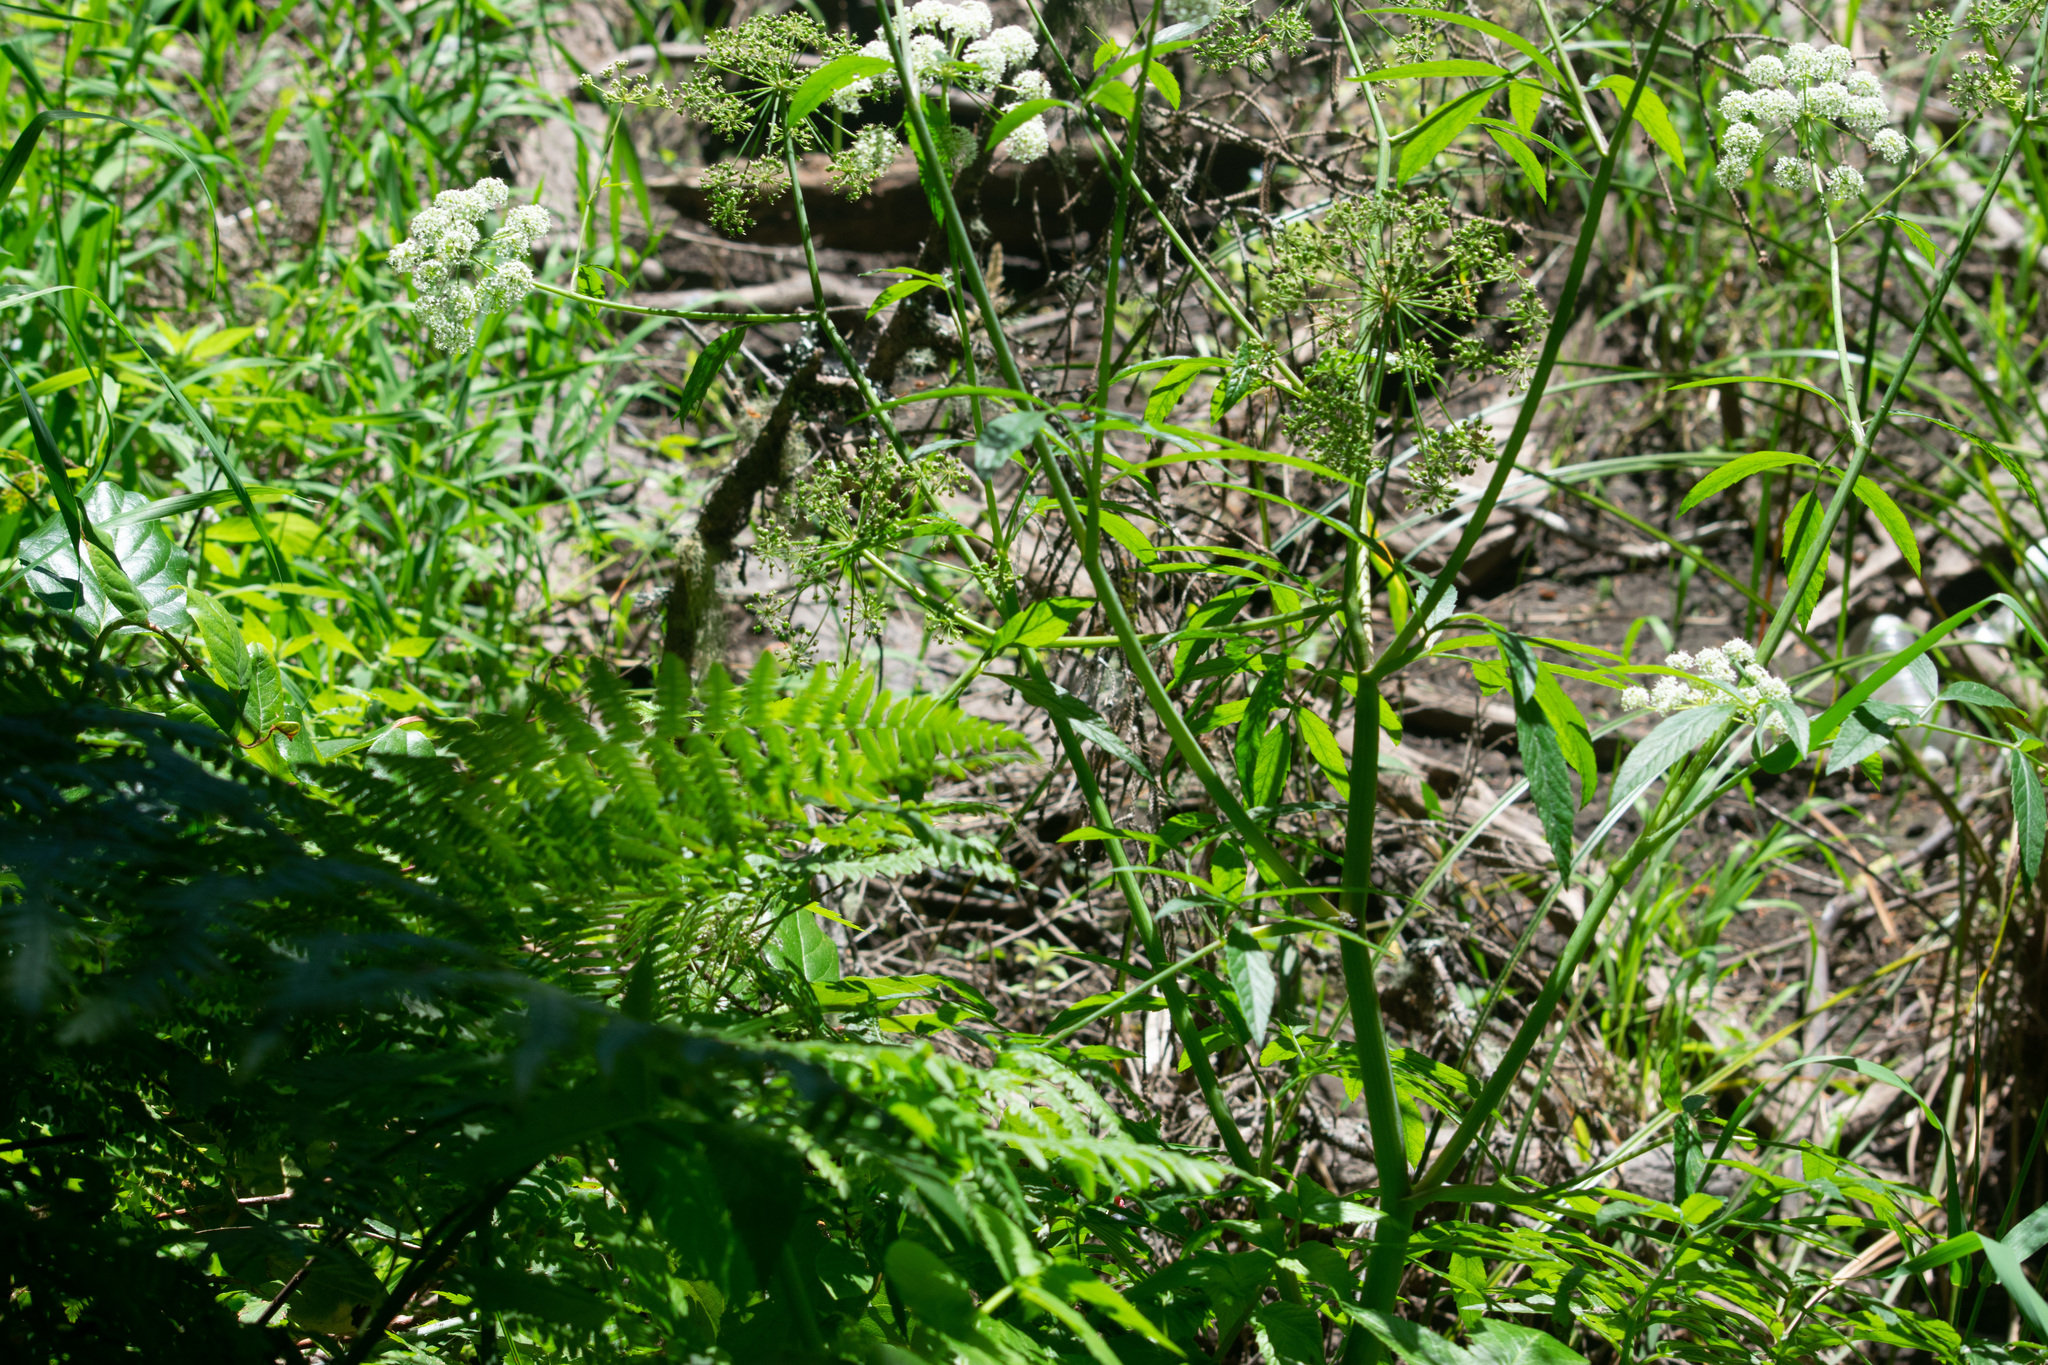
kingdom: Plantae
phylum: Tracheophyta
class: Magnoliopsida
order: Apiales
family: Apiaceae
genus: Cicuta
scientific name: Cicuta douglasii
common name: Western water-hemlock
